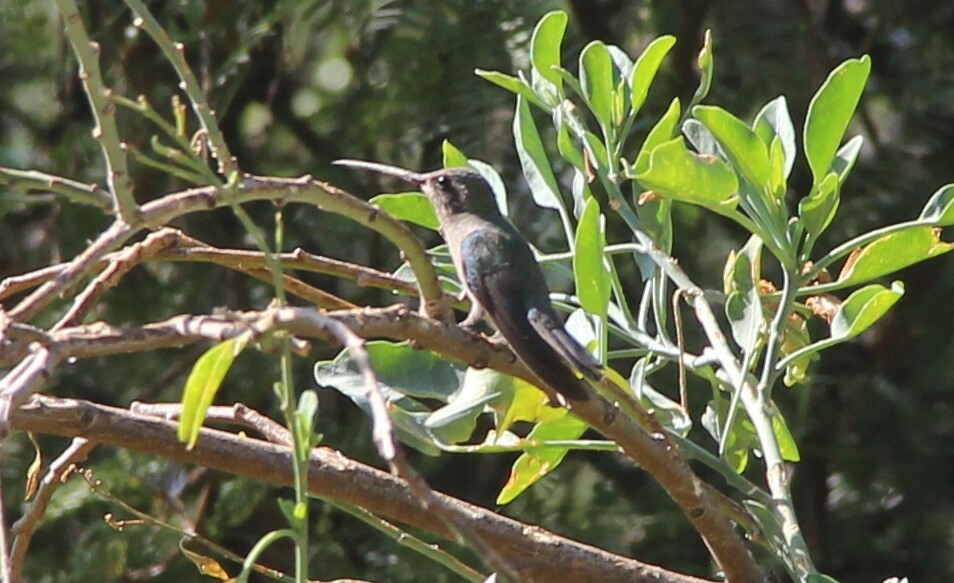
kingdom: Animalia
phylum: Chordata
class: Aves
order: Apodiformes
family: Trochilidae
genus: Cynanthus
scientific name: Cynanthus latirostris
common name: Broad-billed hummingbird
